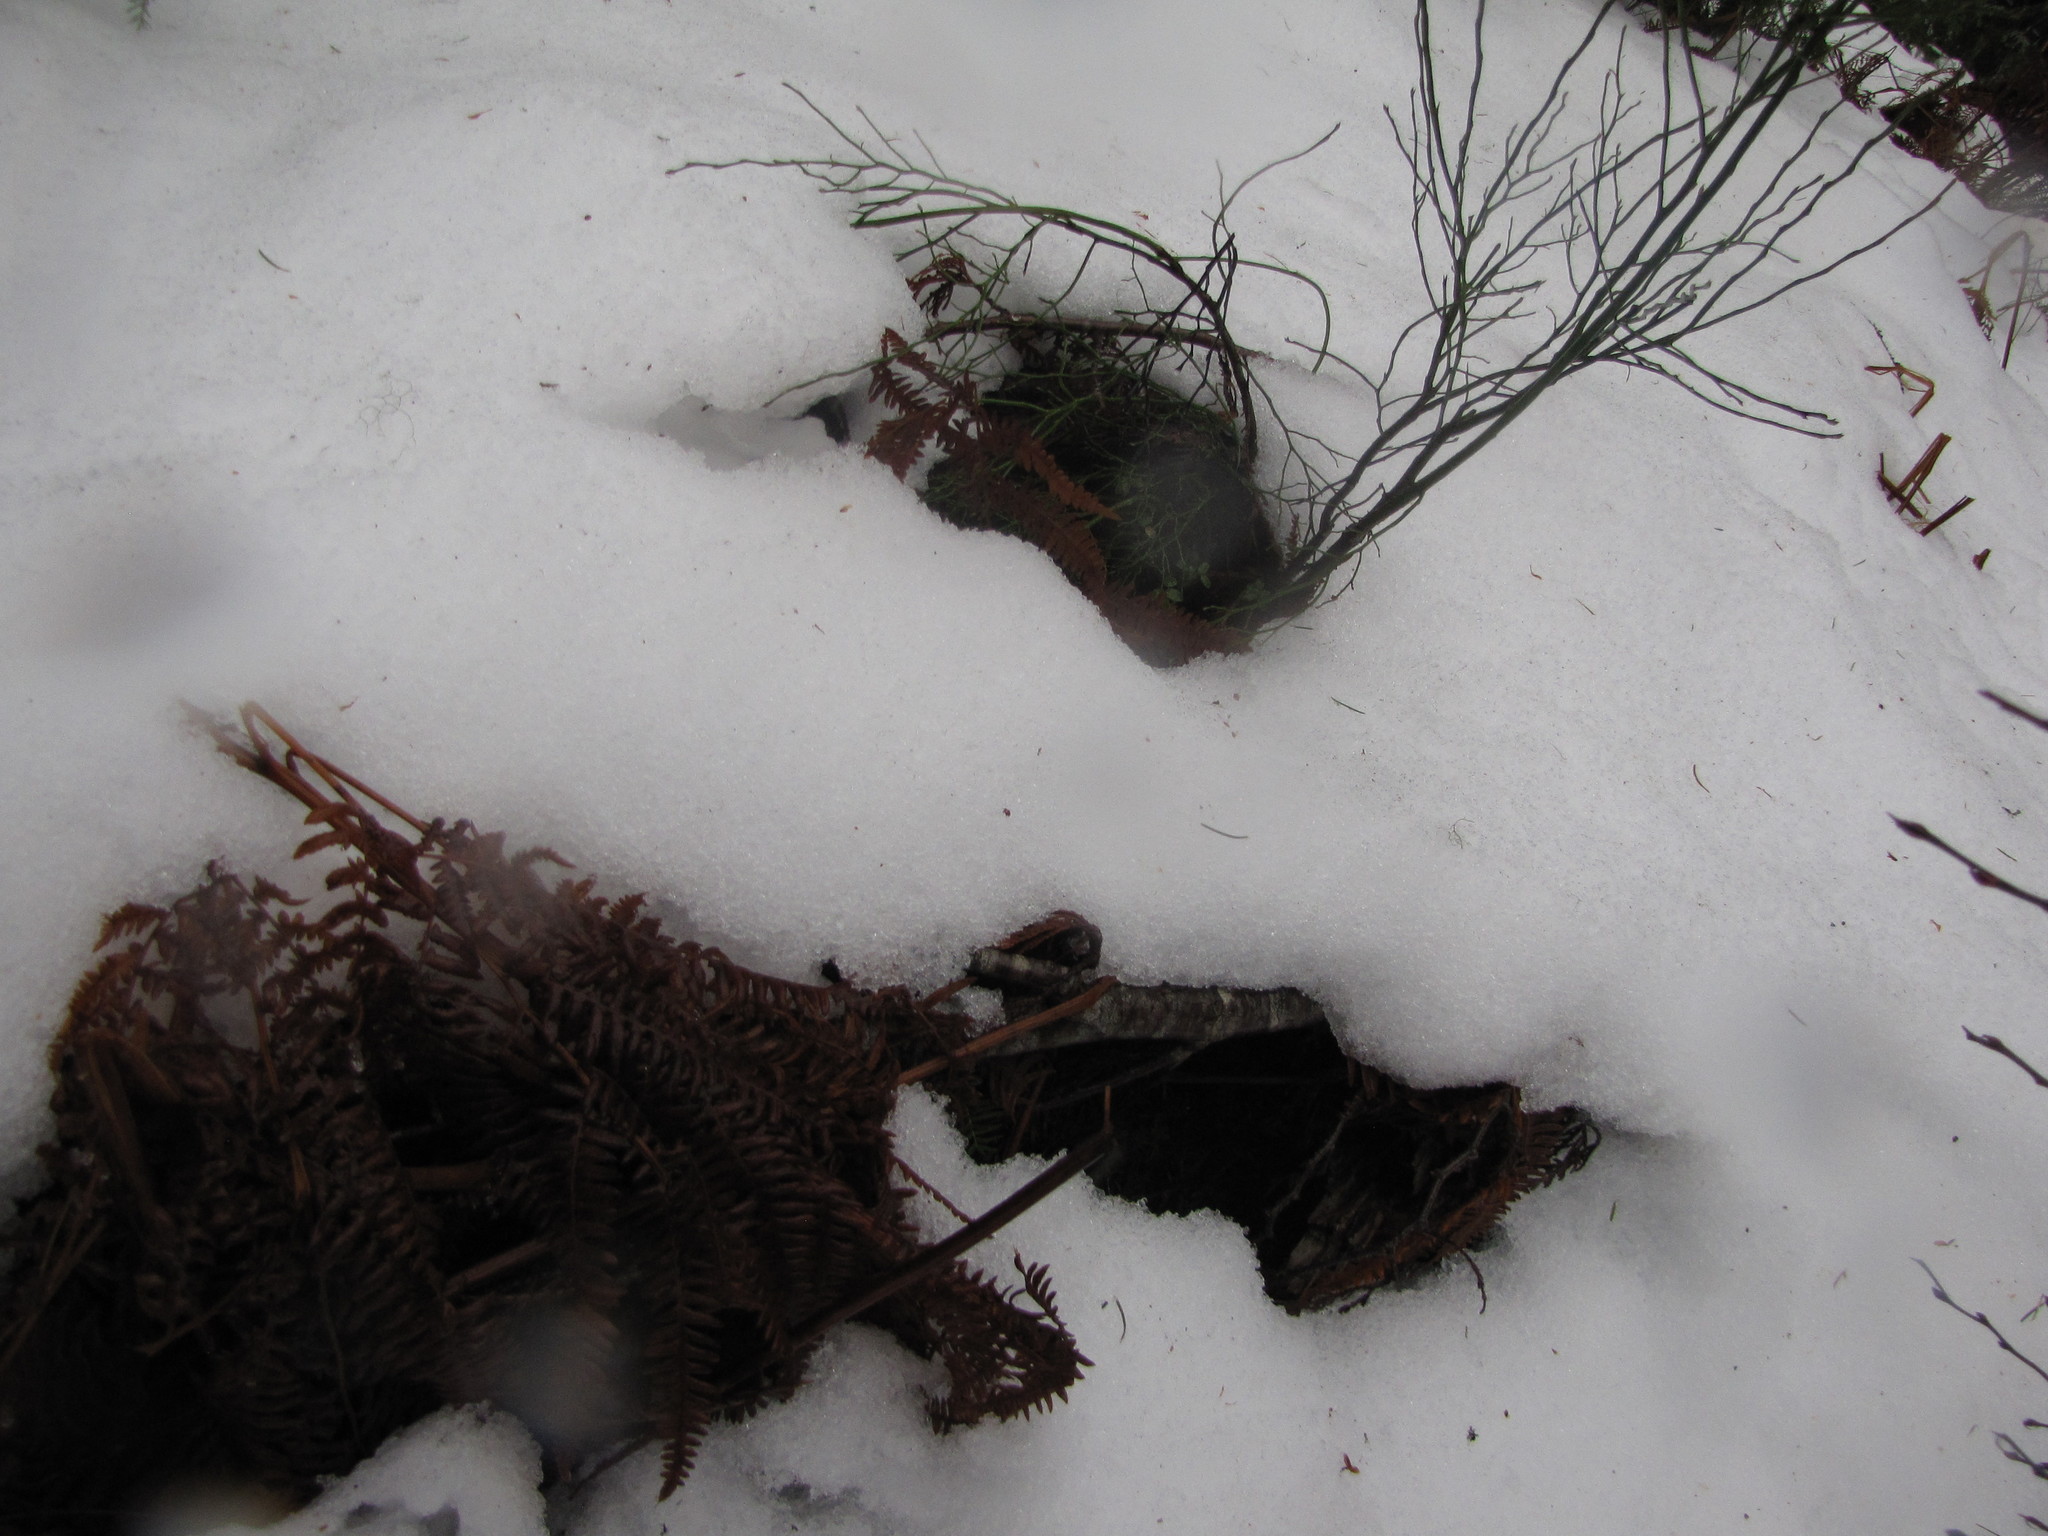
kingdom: Plantae
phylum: Tracheophyta
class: Polypodiopsida
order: Polypodiales
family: Dennstaedtiaceae
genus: Pteridium
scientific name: Pteridium aquilinum
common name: Bracken
